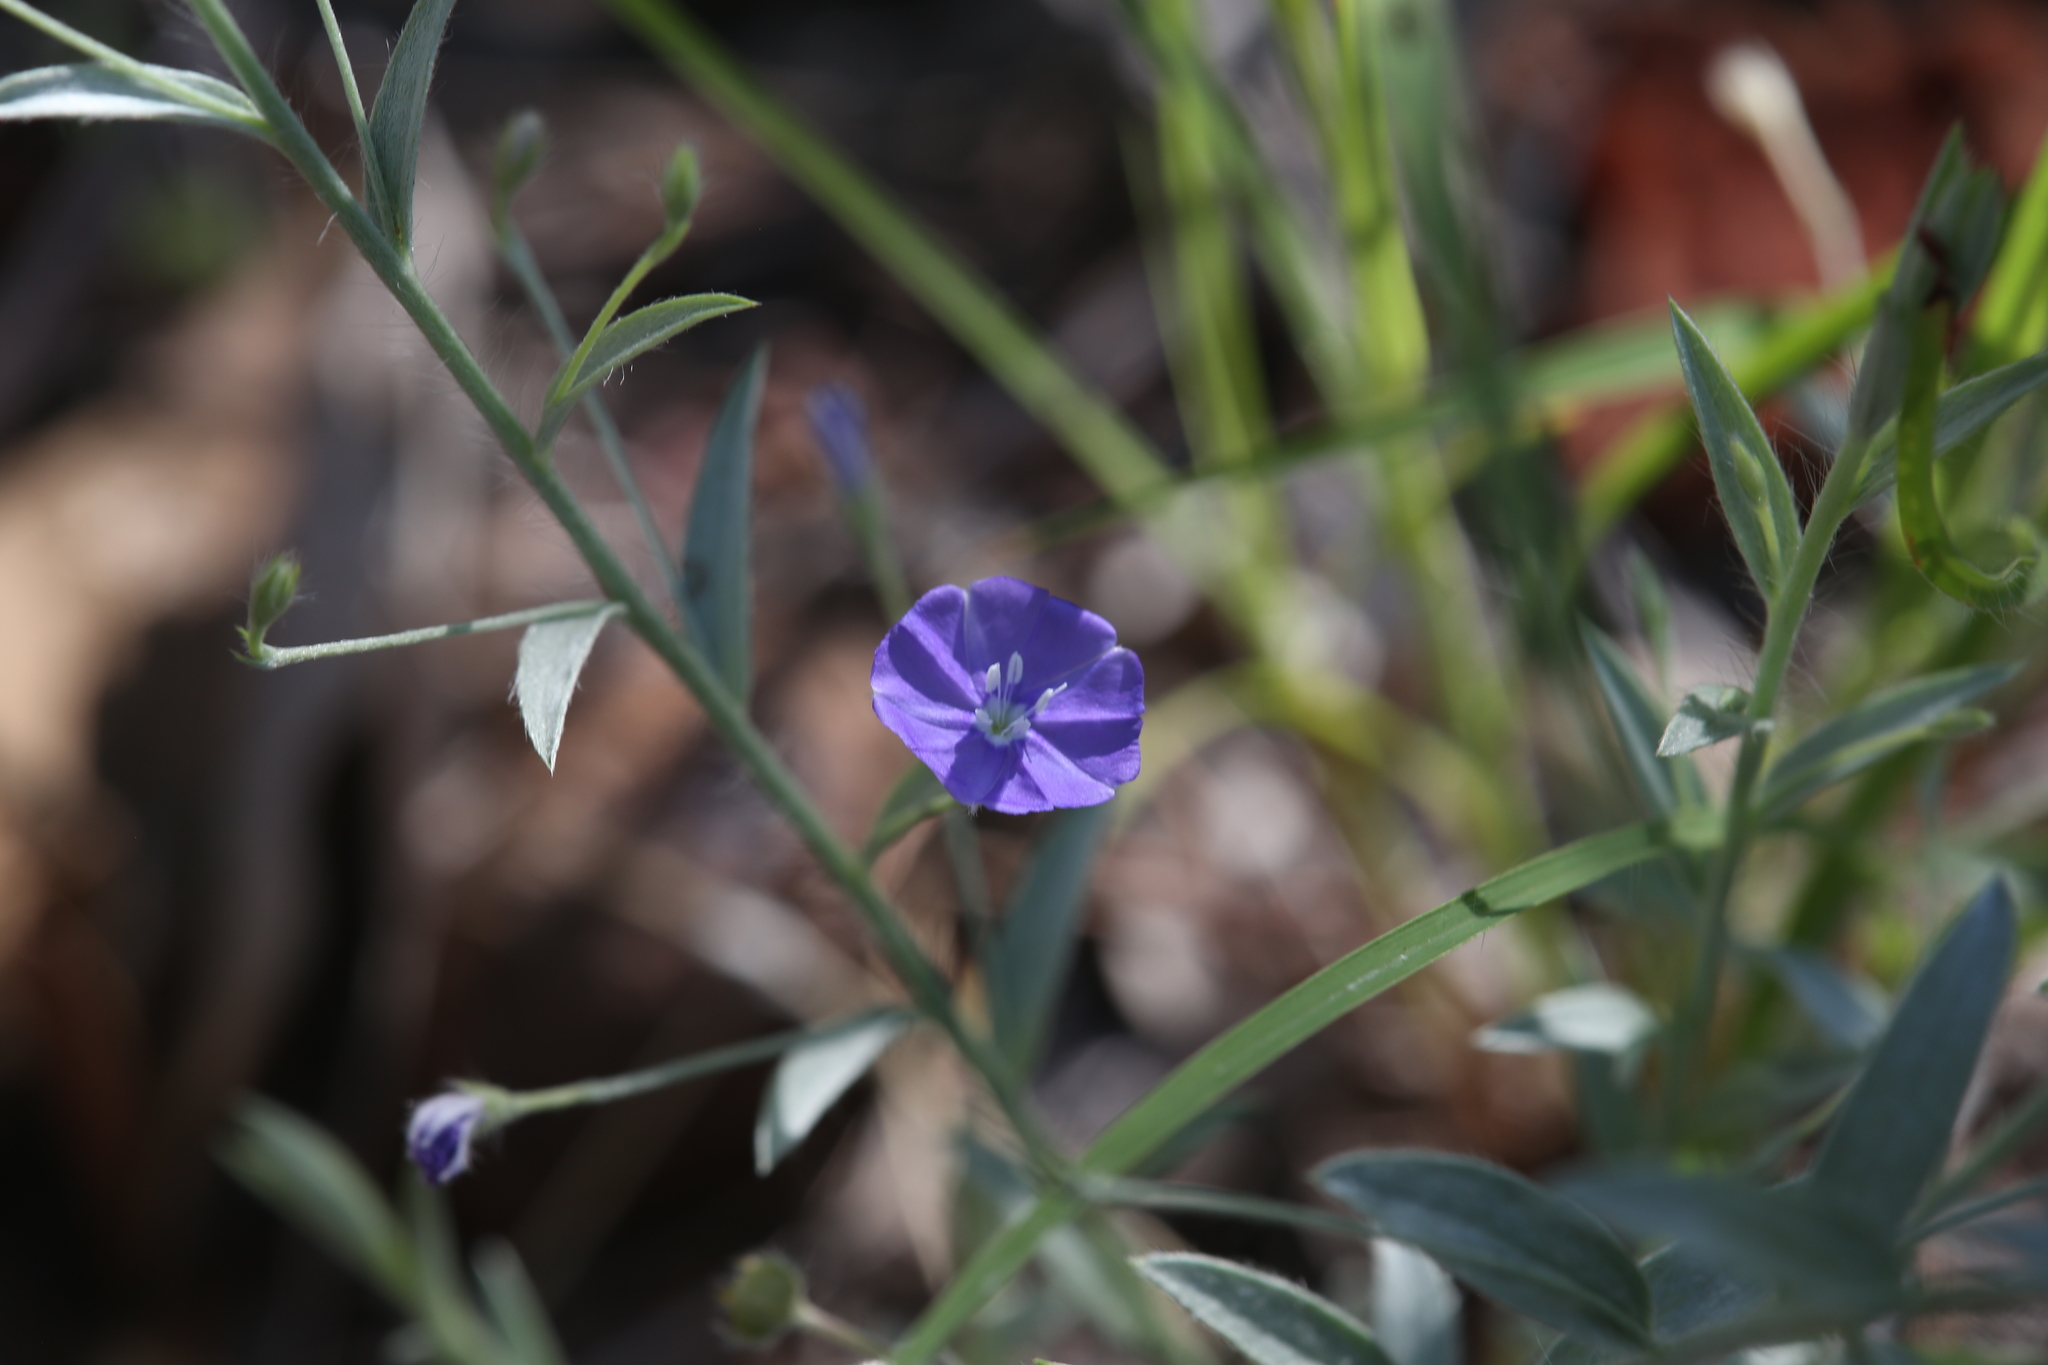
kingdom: Plantae
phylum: Tracheophyta
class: Magnoliopsida
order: Solanales
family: Convolvulaceae
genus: Evolvulus
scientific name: Evolvulus alsinoides
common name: Slender dwarf morning-glory
